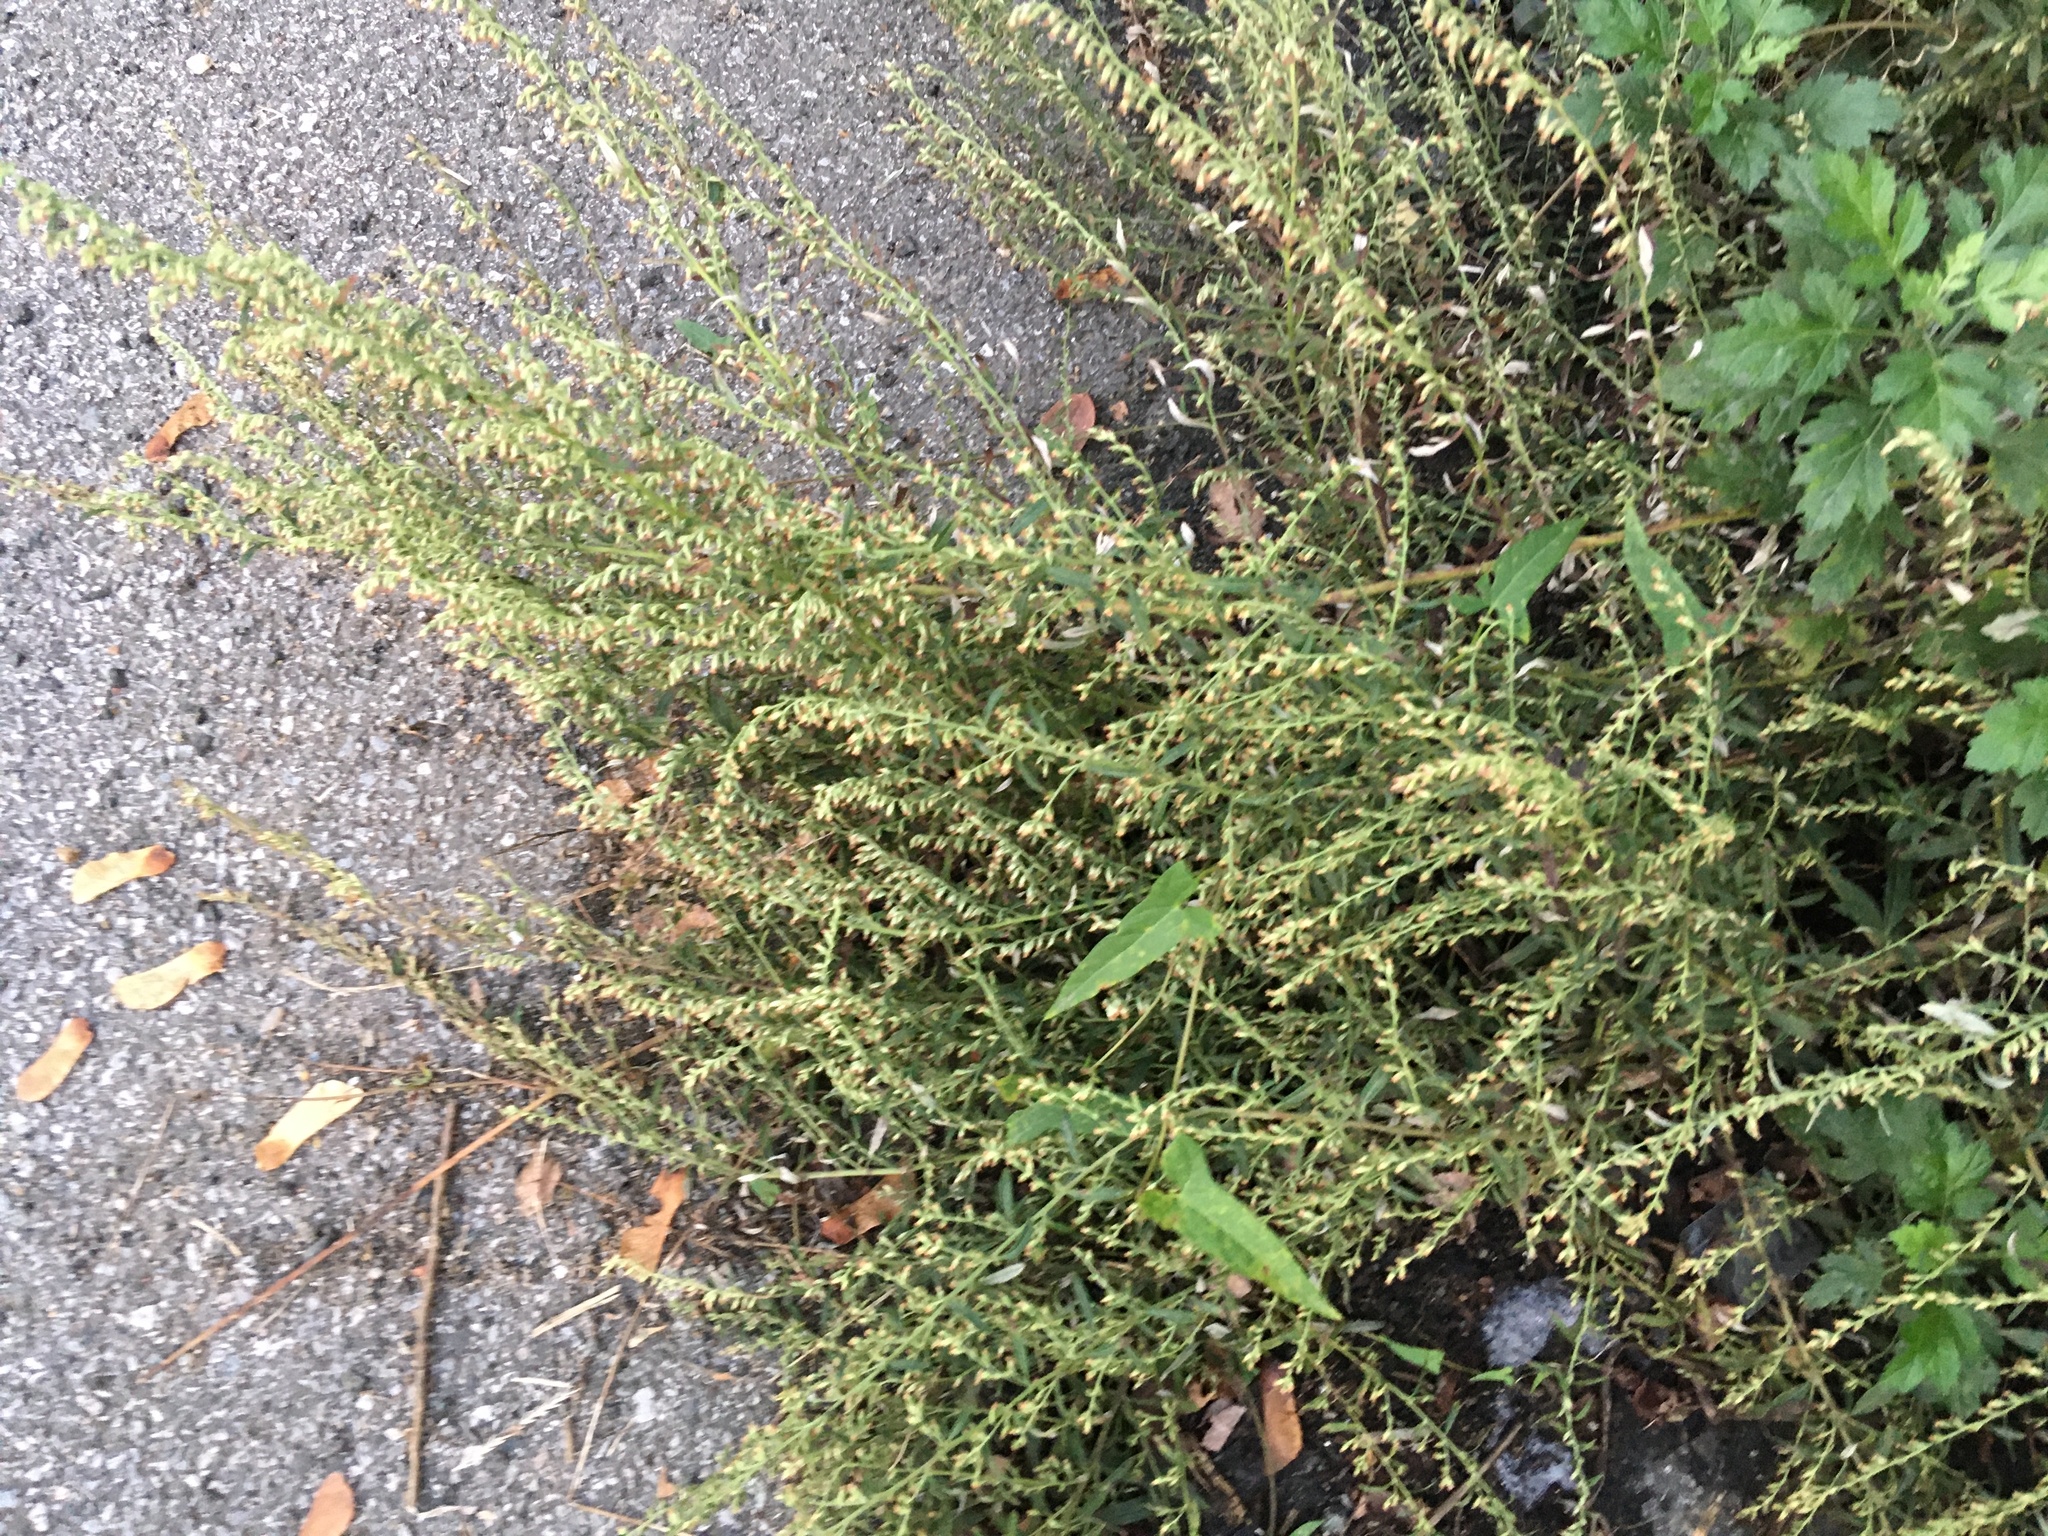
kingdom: Plantae
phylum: Tracheophyta
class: Magnoliopsida
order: Asterales
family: Asteraceae
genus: Artemisia
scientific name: Artemisia vulgaris
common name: Mugwort
